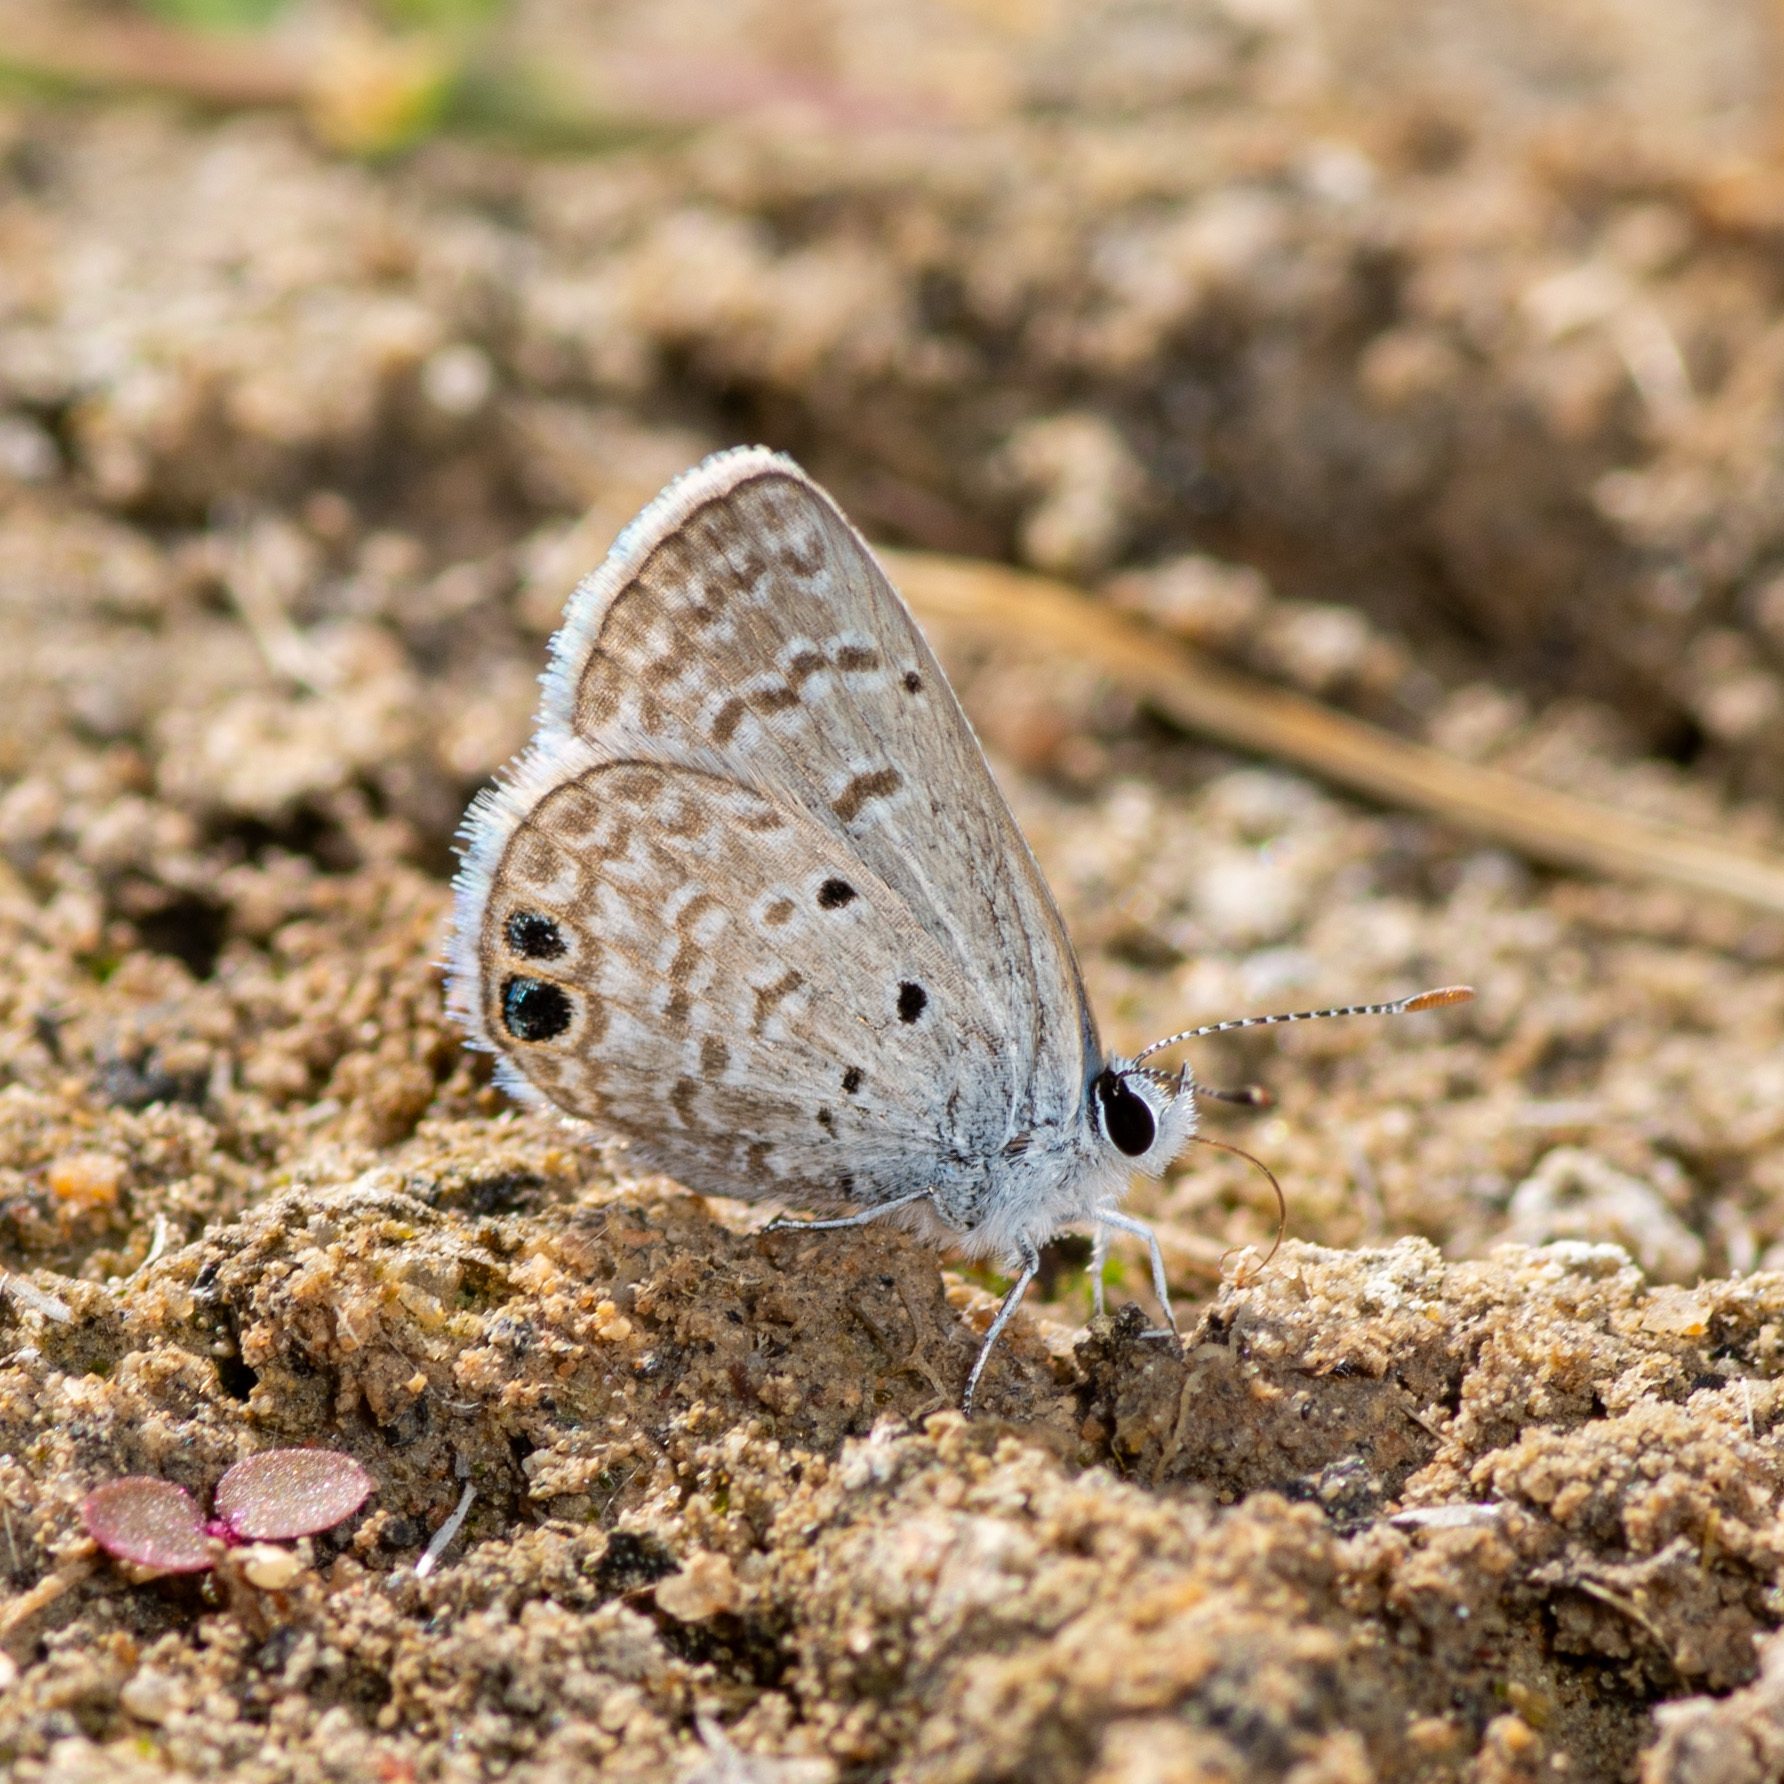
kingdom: Animalia
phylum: Arthropoda
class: Insecta
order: Lepidoptera
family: Lycaenidae
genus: Hemiargus
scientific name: Hemiargus ceraunus
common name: Ceraunus blue
